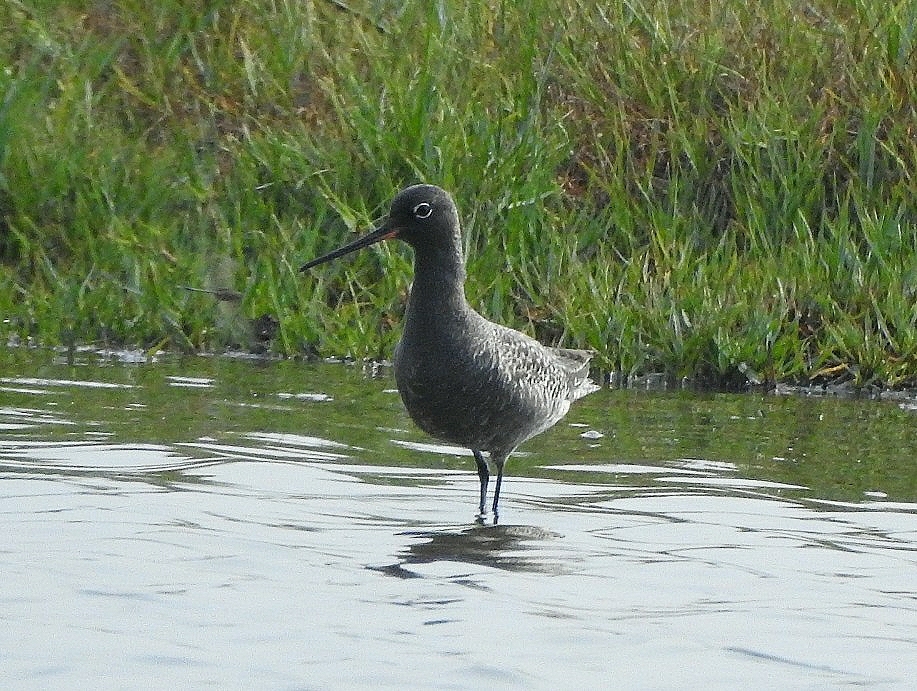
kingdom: Animalia
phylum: Chordata
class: Aves
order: Charadriiformes
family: Scolopacidae
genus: Tringa
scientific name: Tringa erythropus
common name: Spotted redshank
